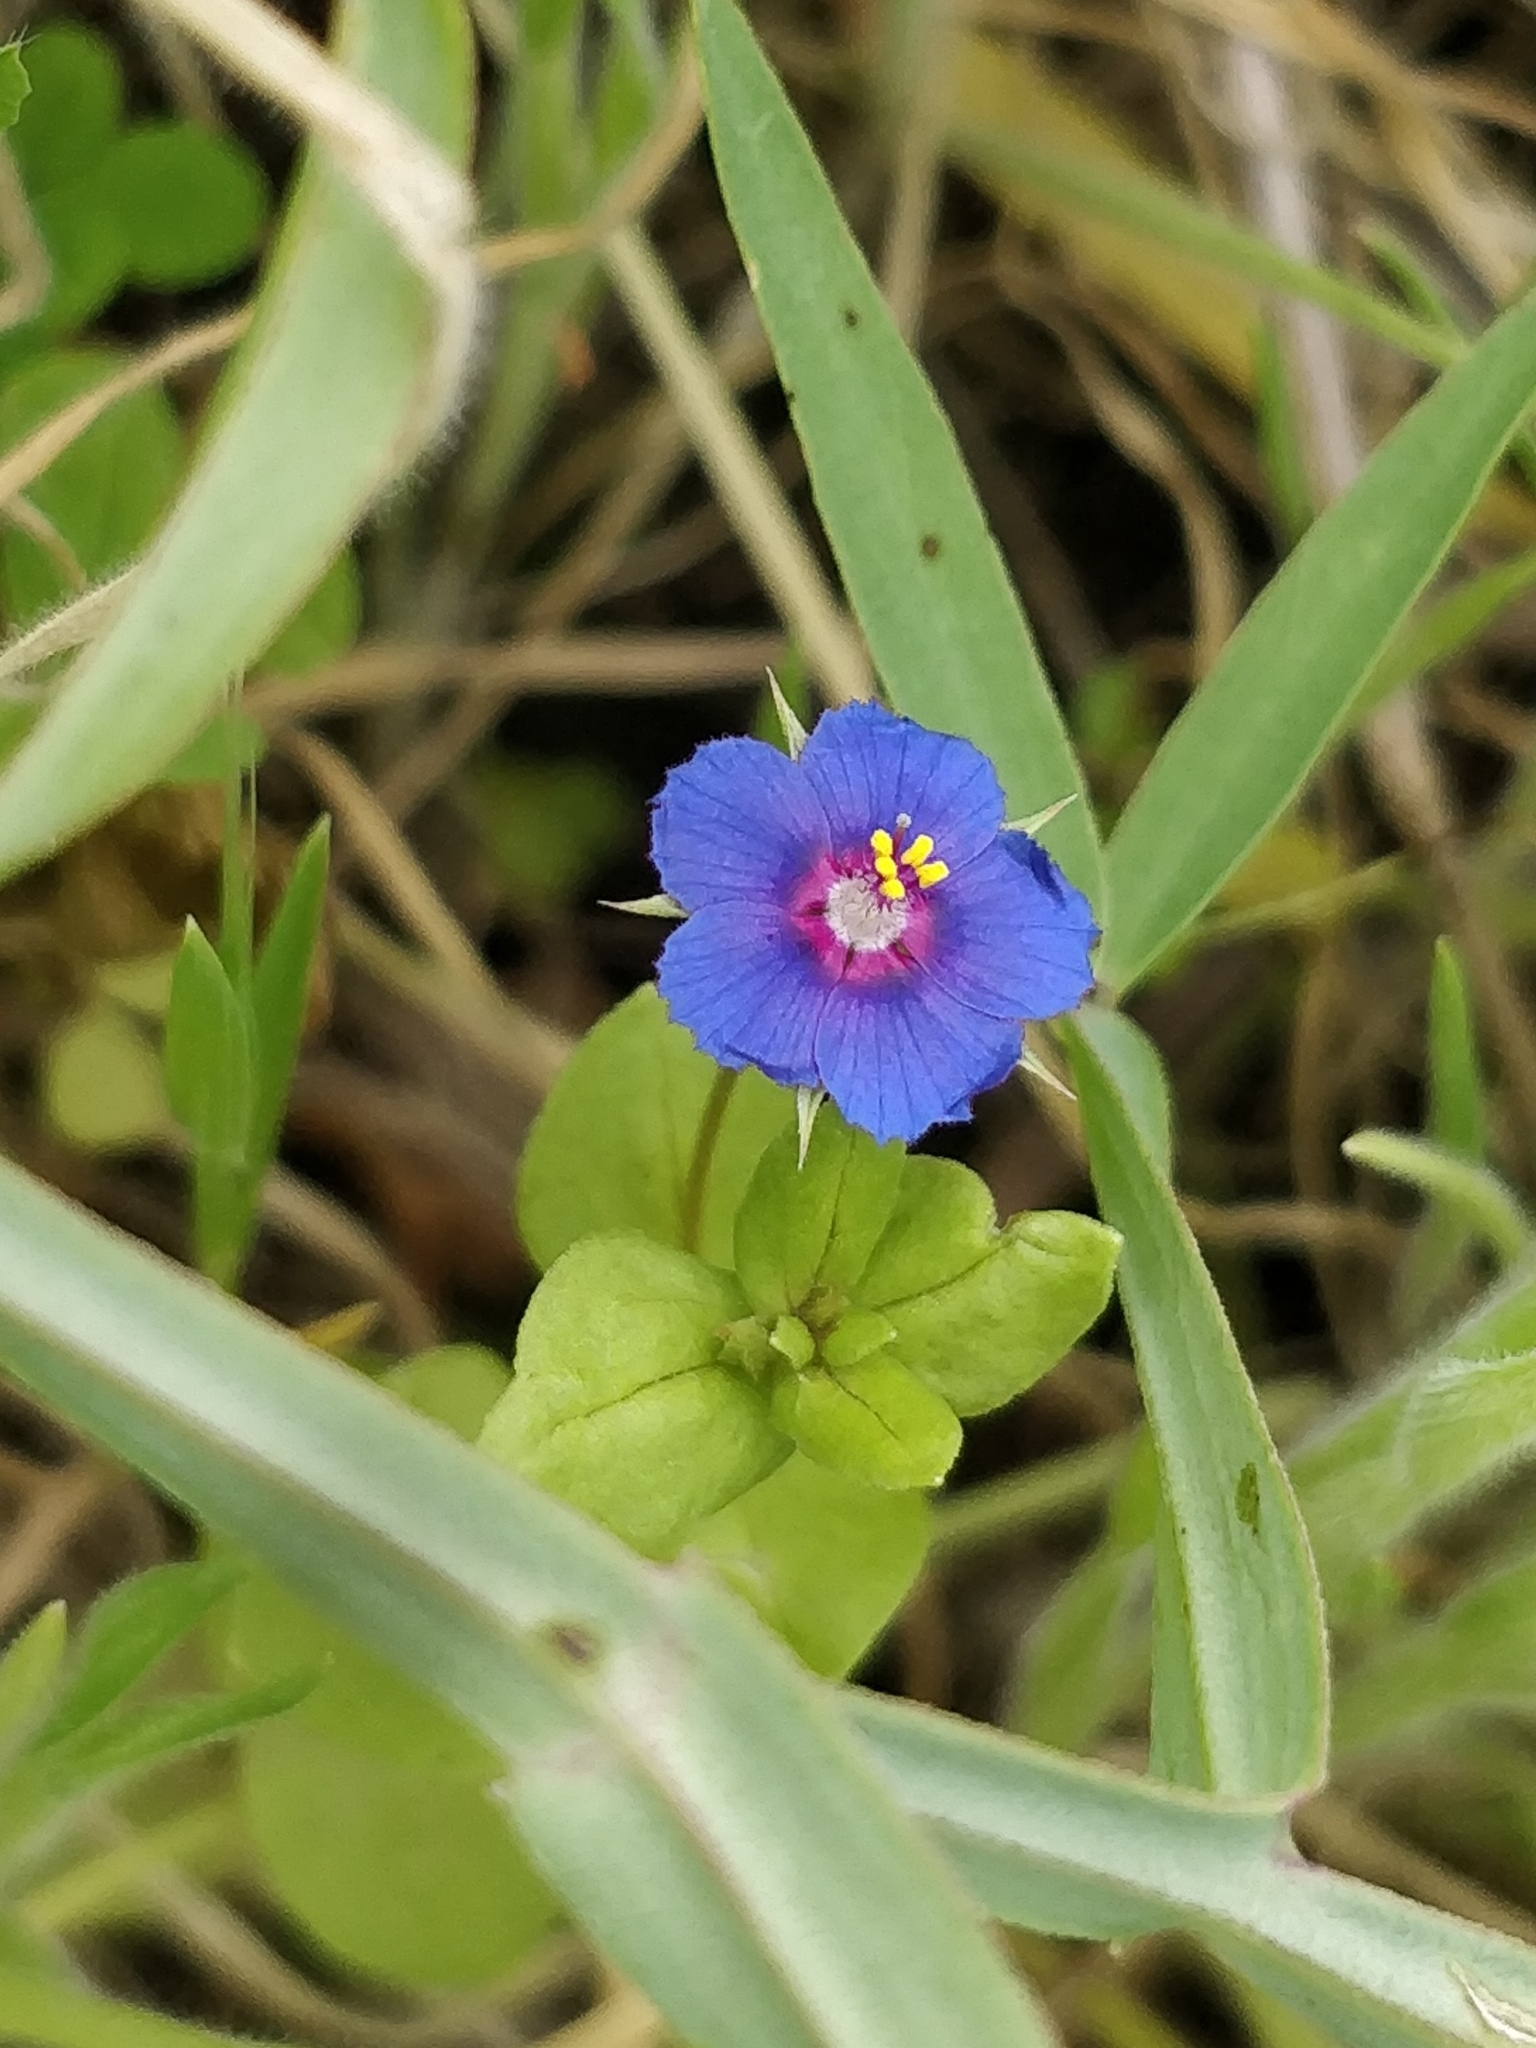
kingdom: Plantae
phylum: Tracheophyta
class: Magnoliopsida
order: Ericales
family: Primulaceae
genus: Lysimachia
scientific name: Lysimachia loeflingii
